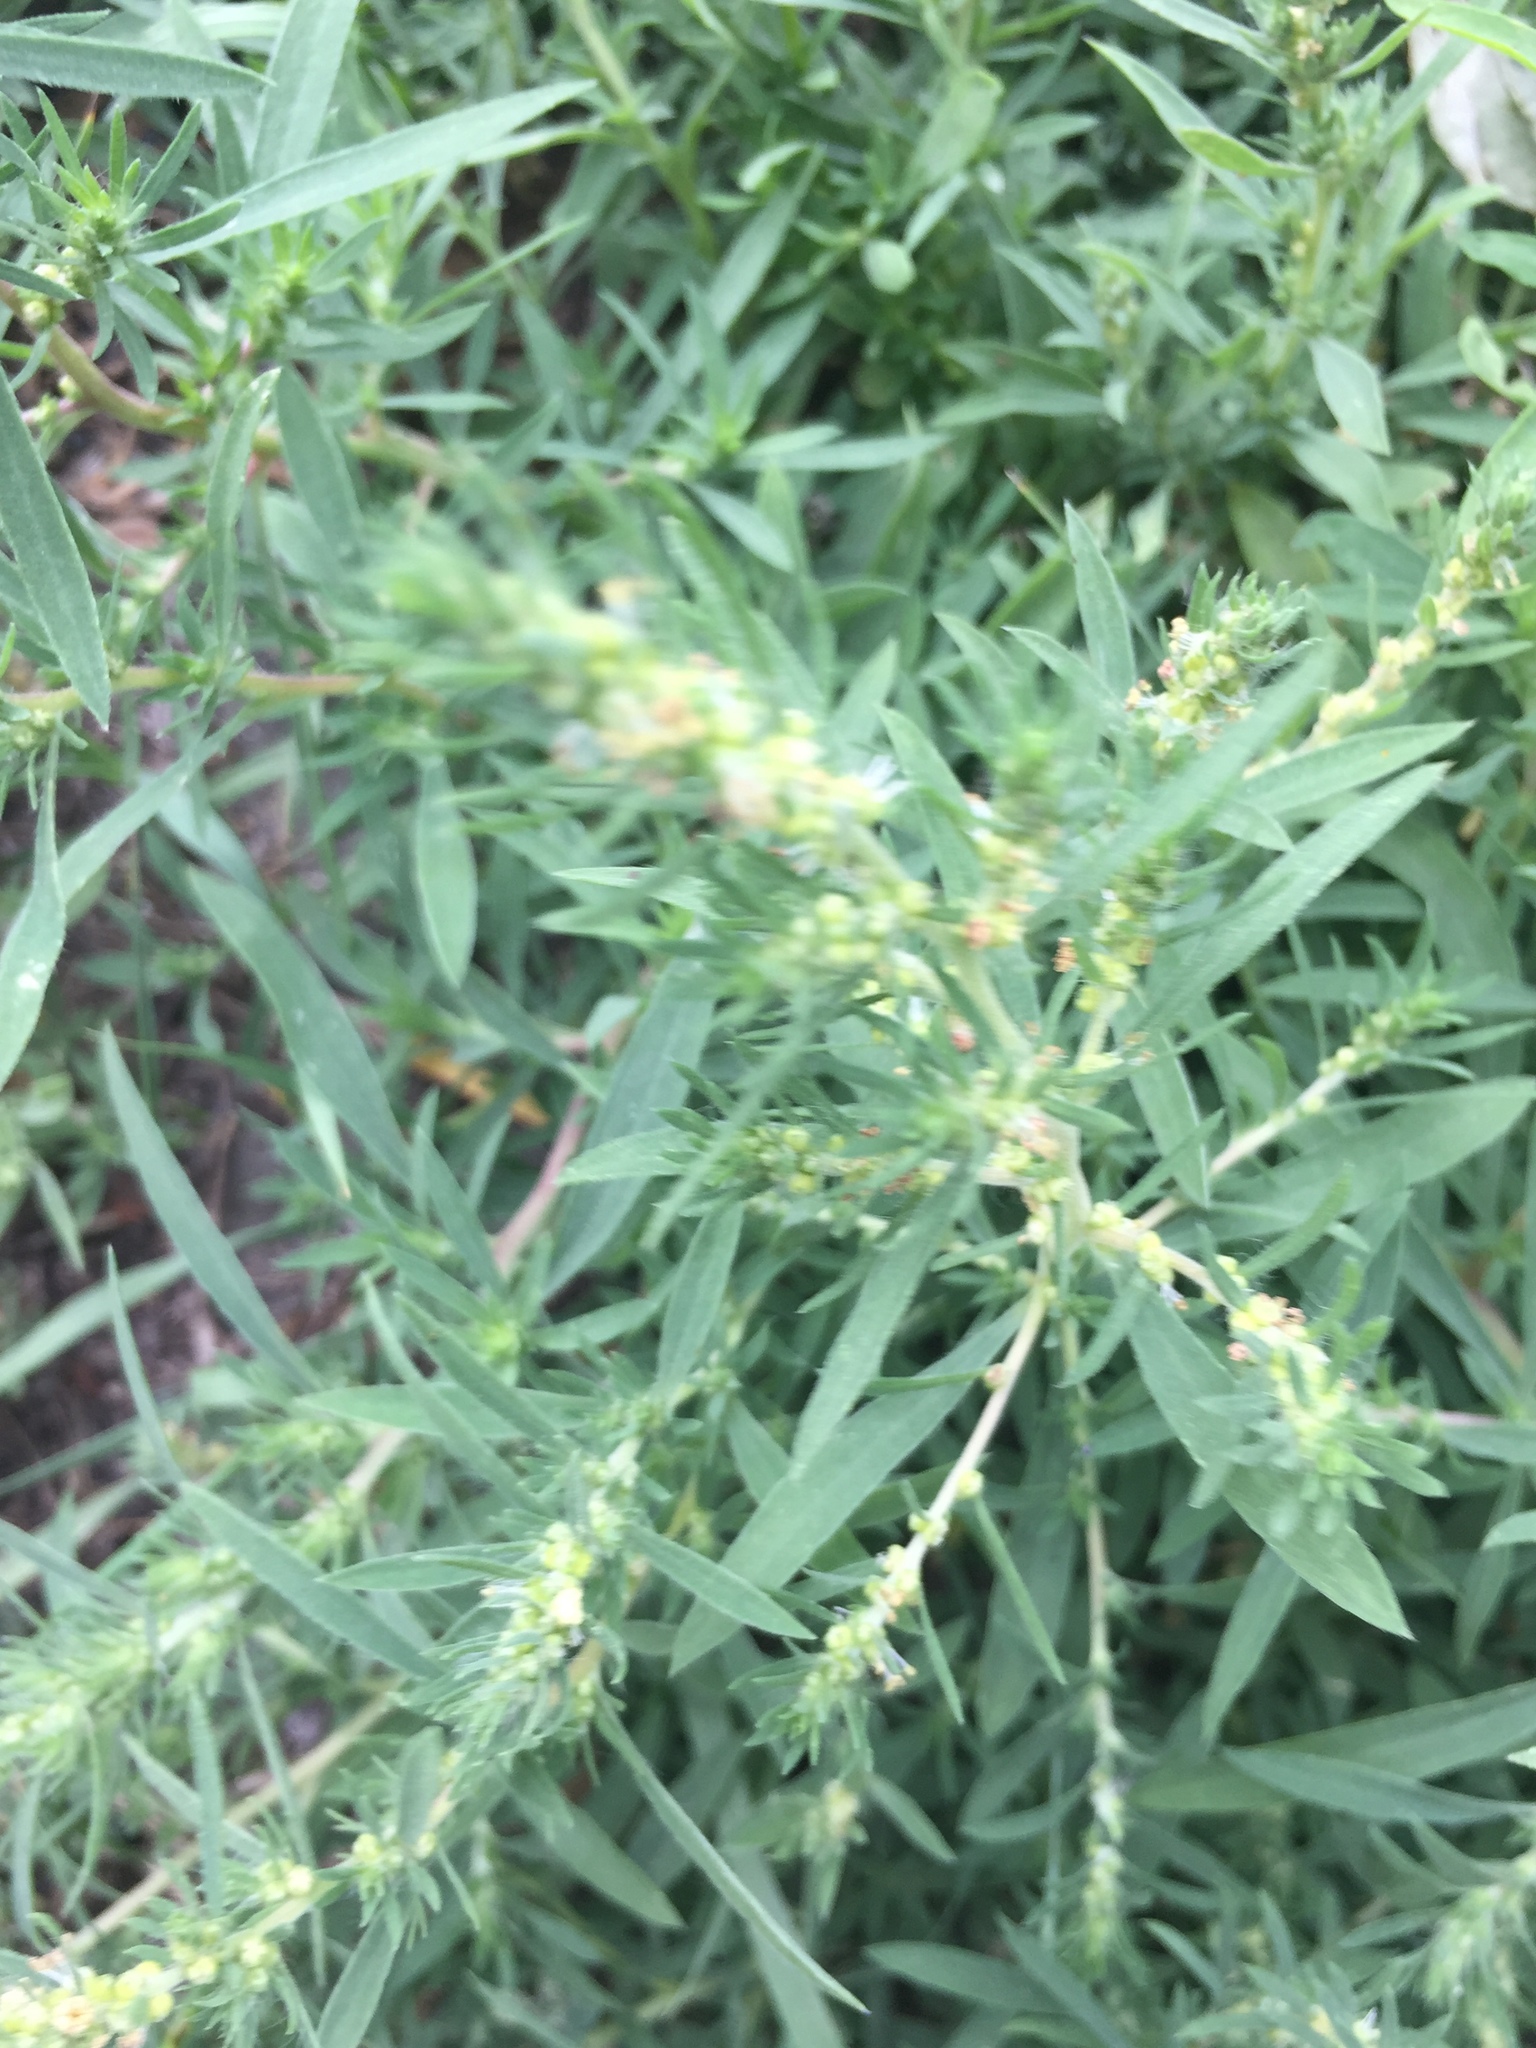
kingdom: Plantae
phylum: Tracheophyta
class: Magnoliopsida
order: Caryophyllales
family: Amaranthaceae
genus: Bassia
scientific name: Bassia scoparia
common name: Belvedere
